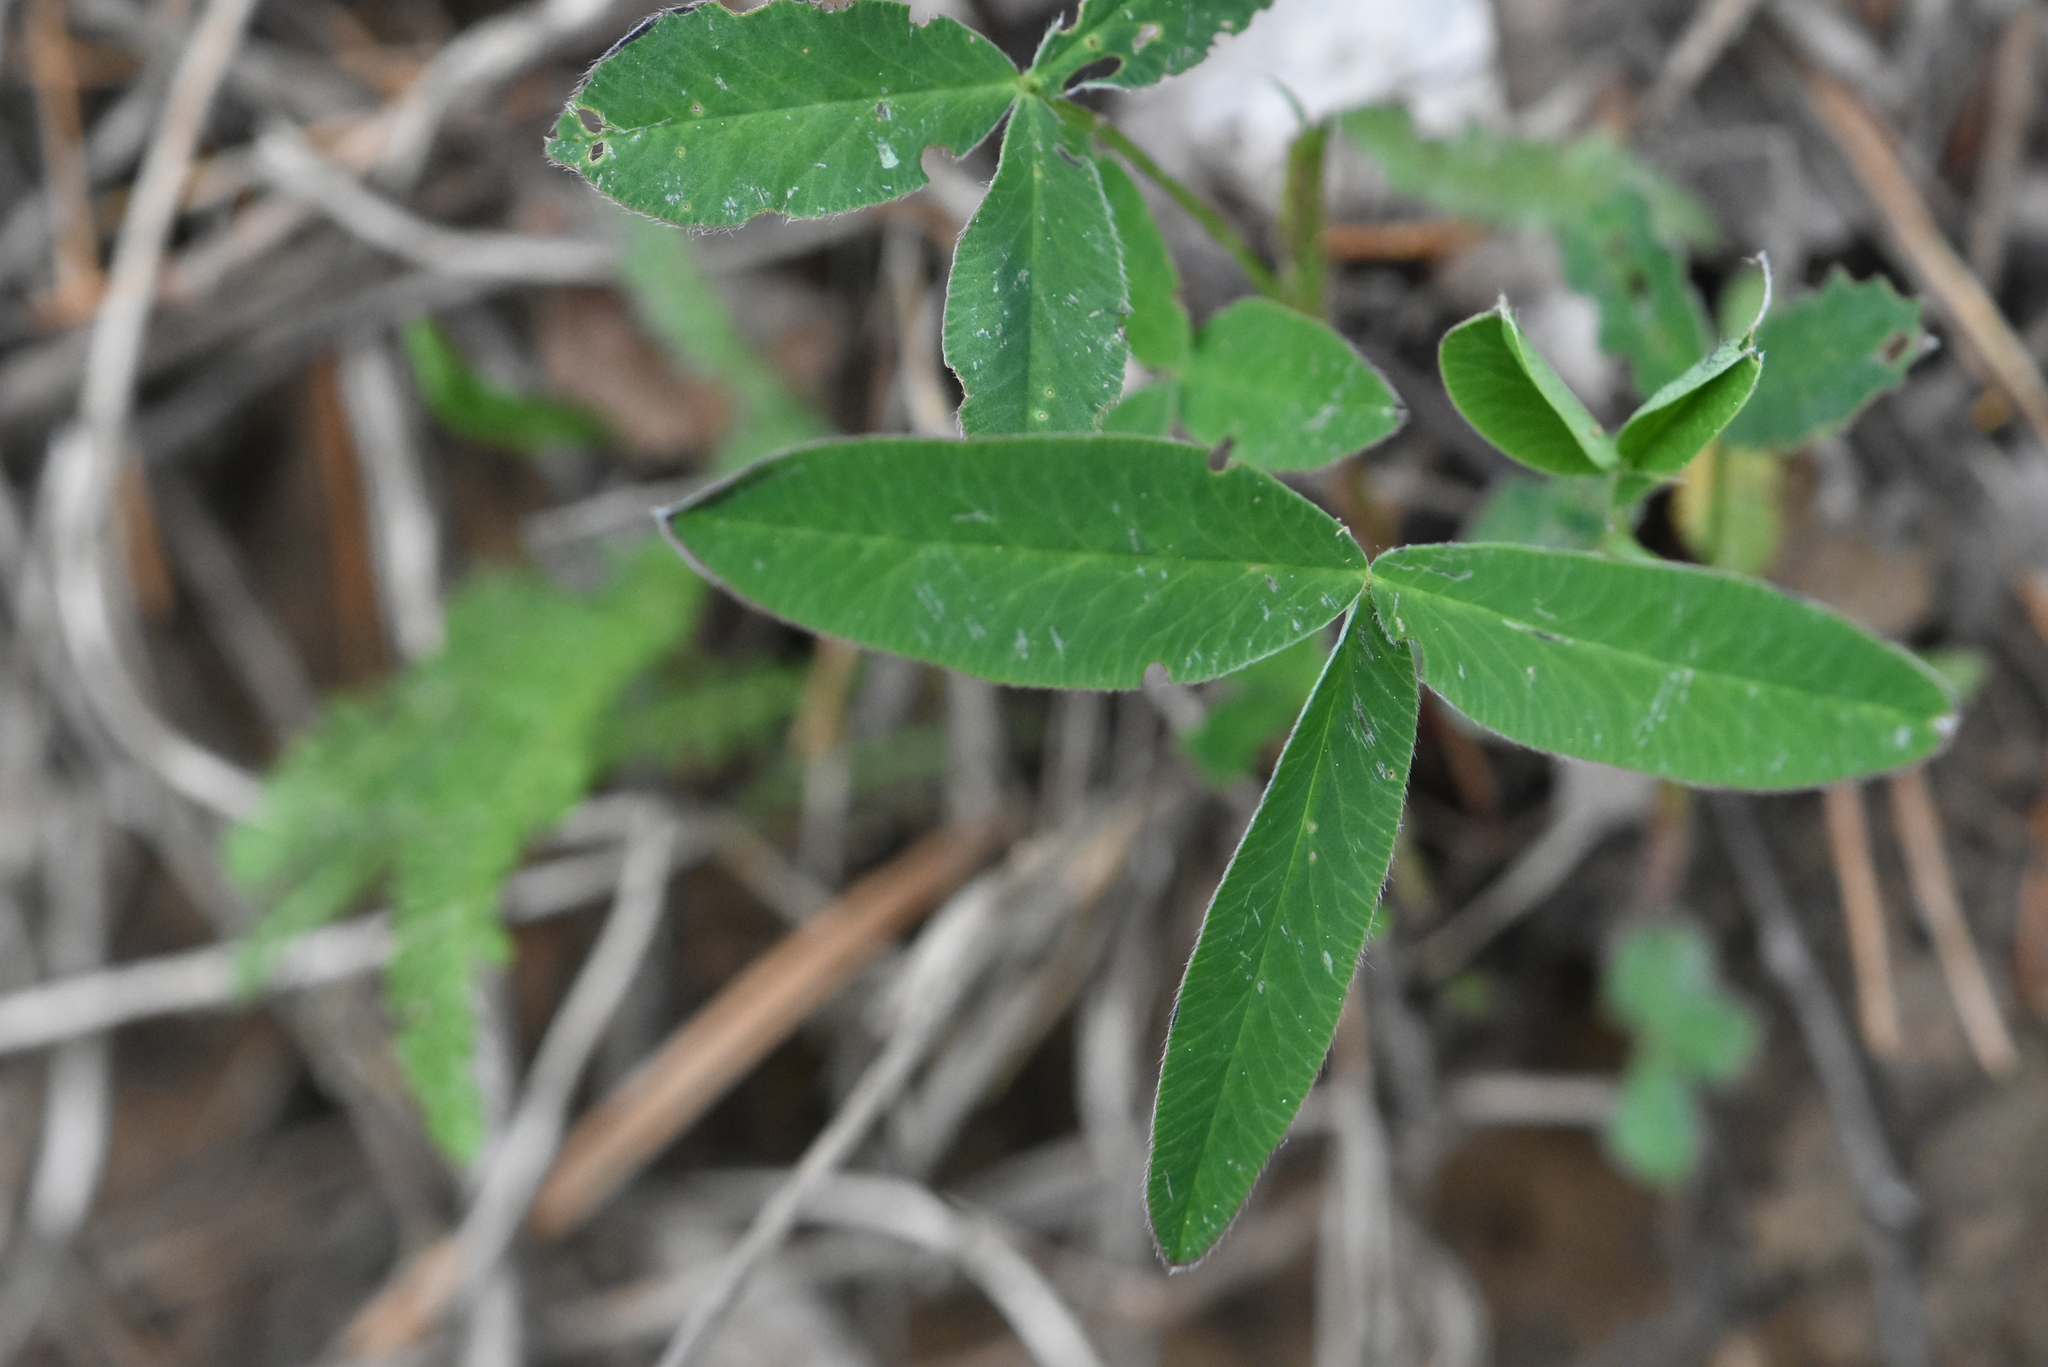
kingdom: Plantae
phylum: Tracheophyta
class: Magnoliopsida
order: Fabales
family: Fabaceae
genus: Trifolium
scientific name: Trifolium medium
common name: Zigzag clover
